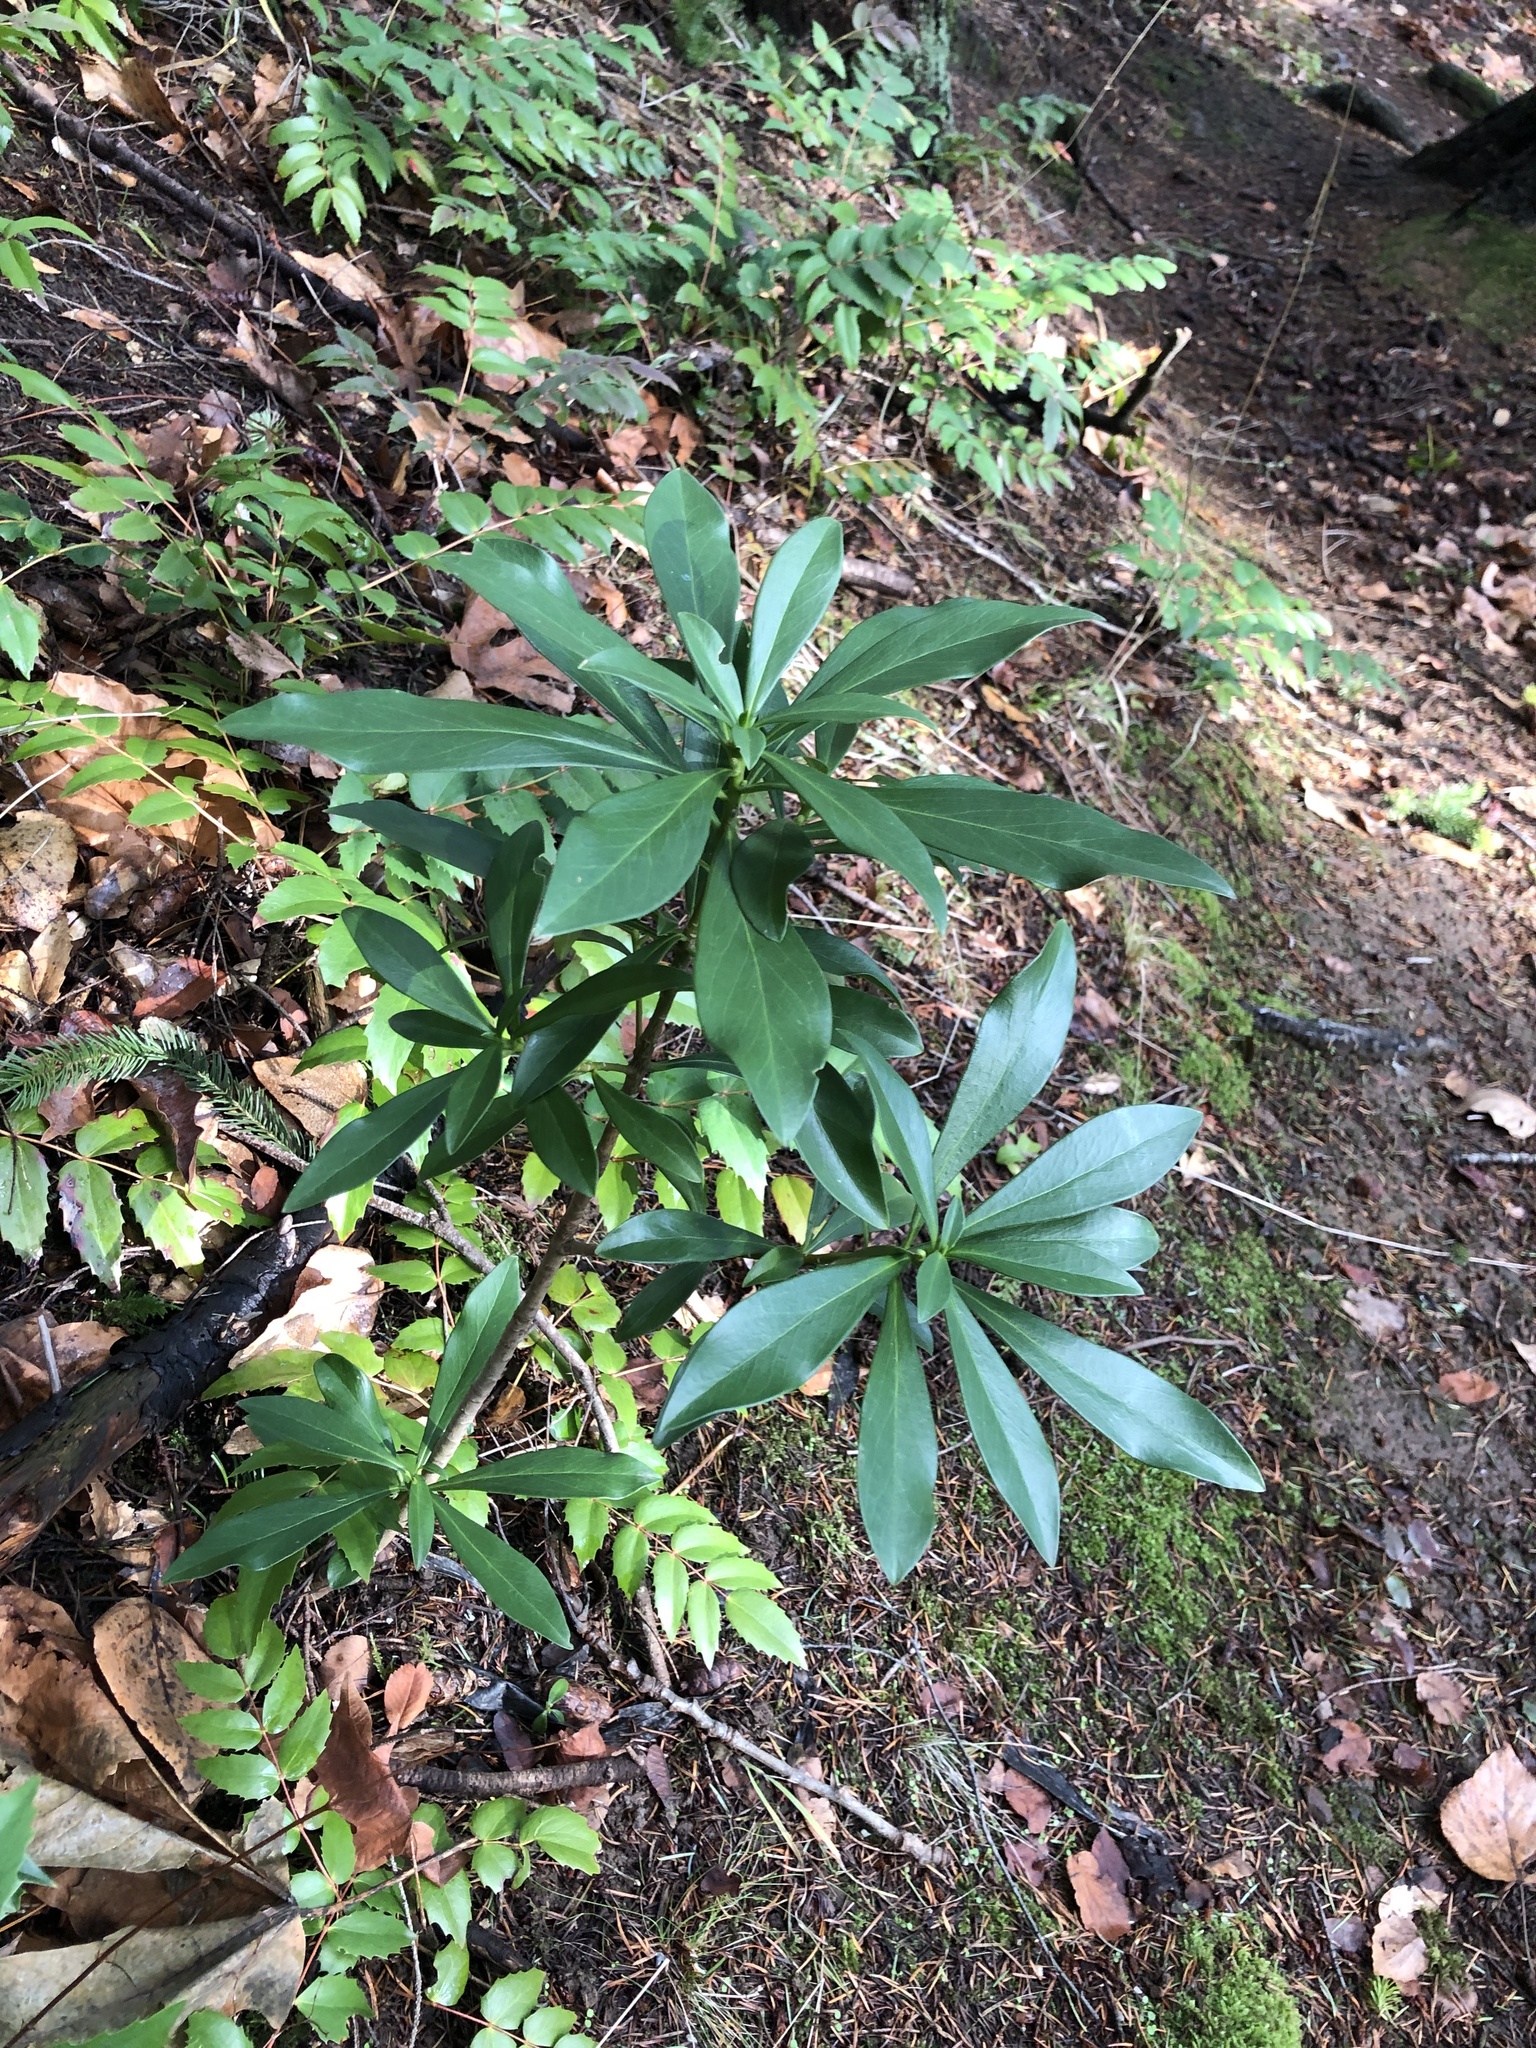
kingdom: Plantae
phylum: Tracheophyta
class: Magnoliopsida
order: Malvales
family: Thymelaeaceae
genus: Daphne
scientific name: Daphne laureola
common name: Spurge-laurel
